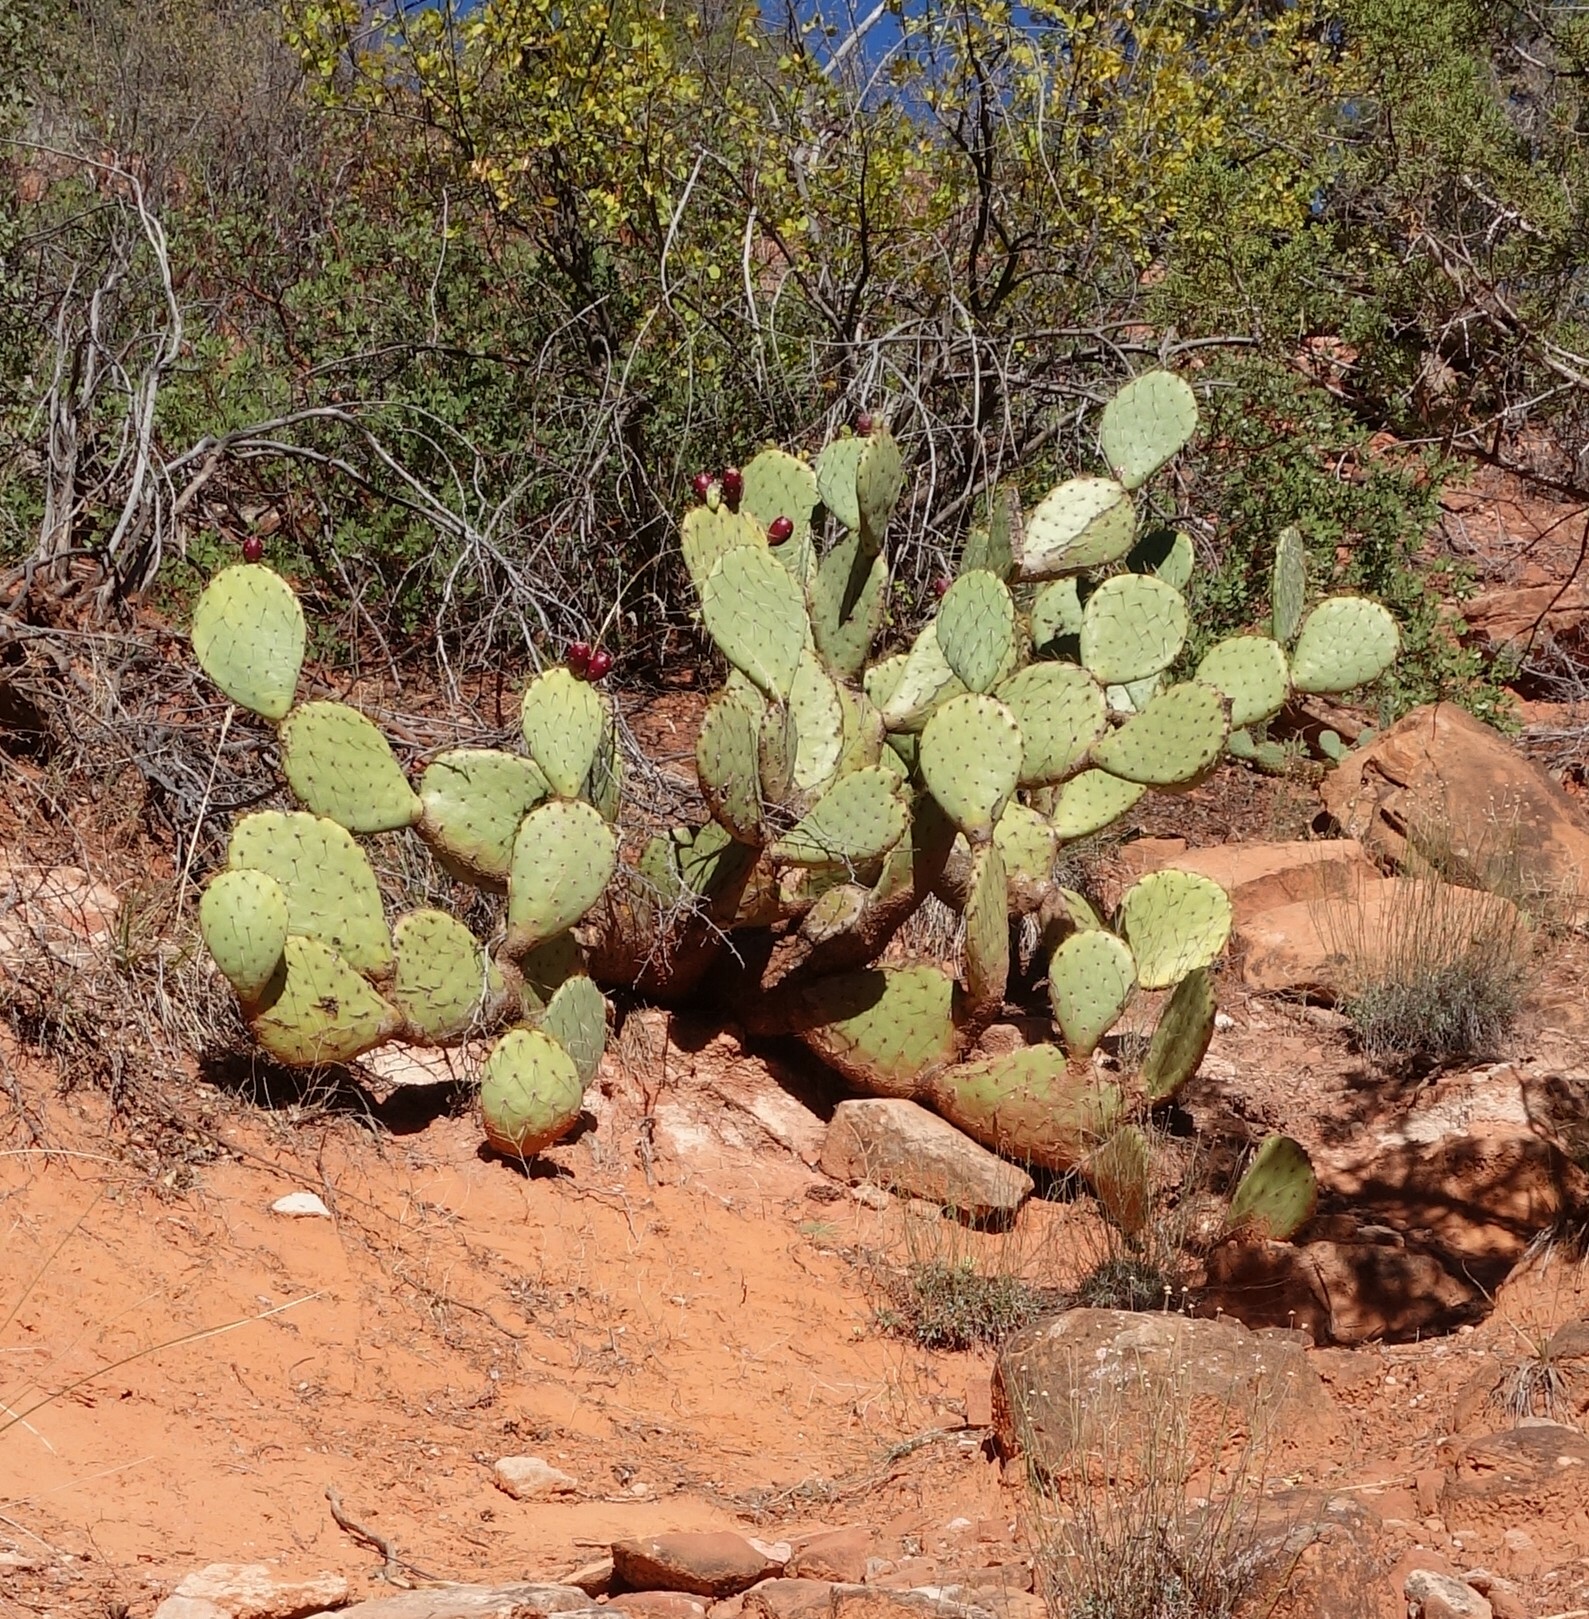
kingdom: Plantae
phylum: Tracheophyta
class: Magnoliopsida
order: Caryophyllales
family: Cactaceae
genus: Opuntia
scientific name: Opuntia engelmannii
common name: Cactus-apple
